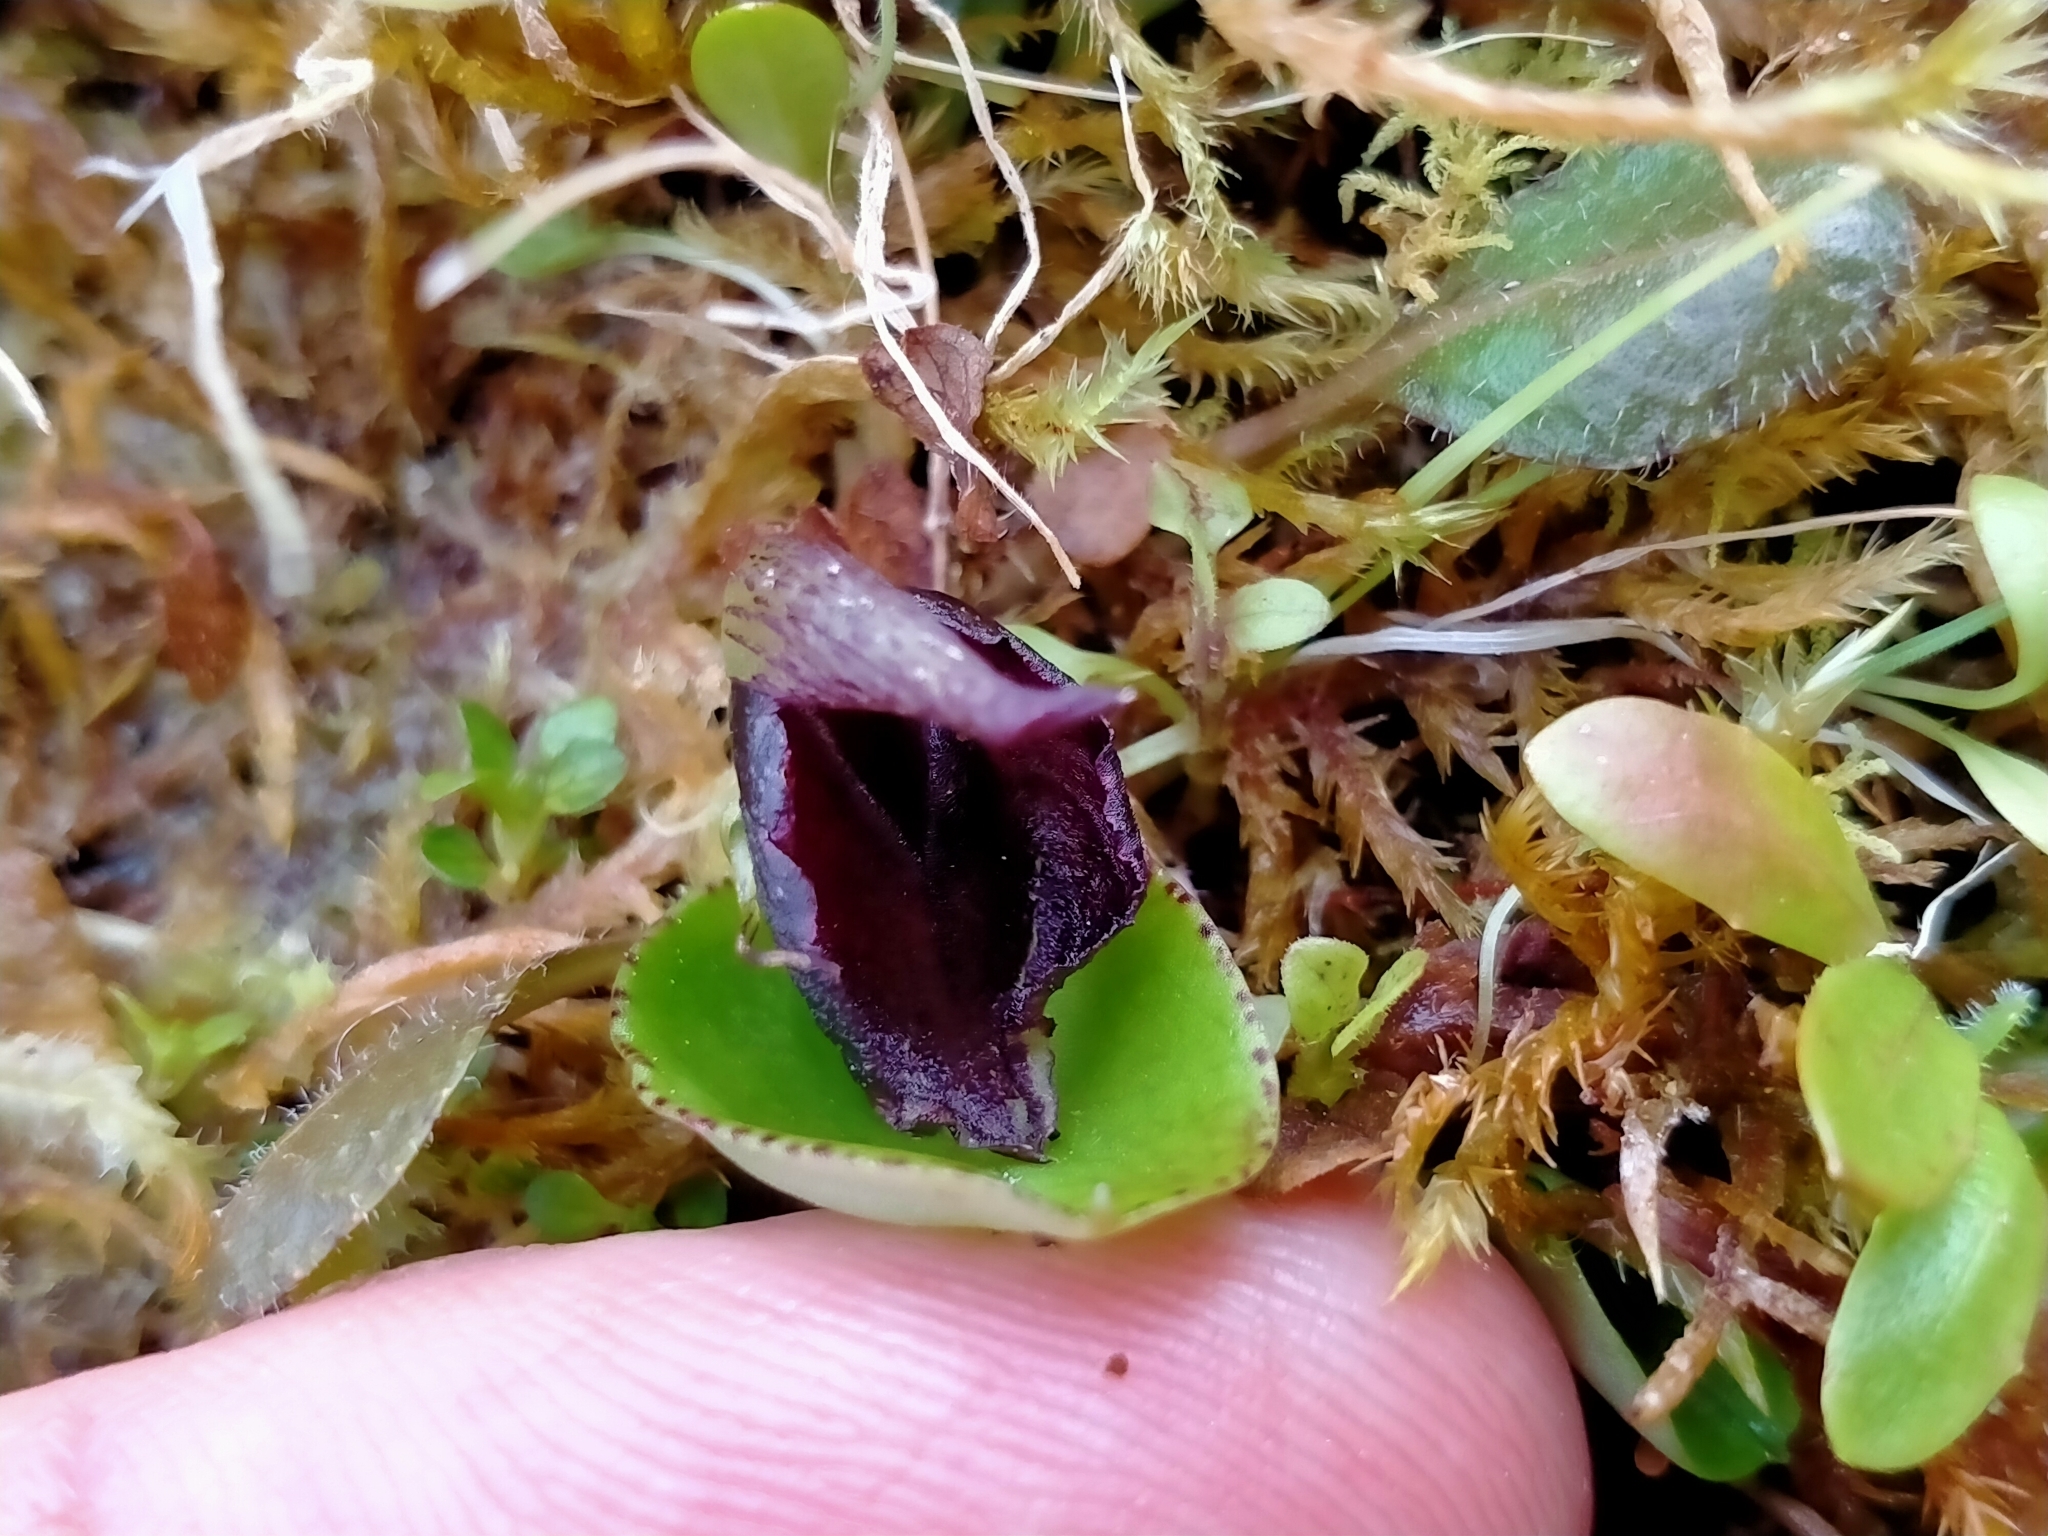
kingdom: Plantae
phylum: Tracheophyta
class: Liliopsida
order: Asparagales
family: Orchidaceae
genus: Corybas
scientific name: Corybas orbiculatus
